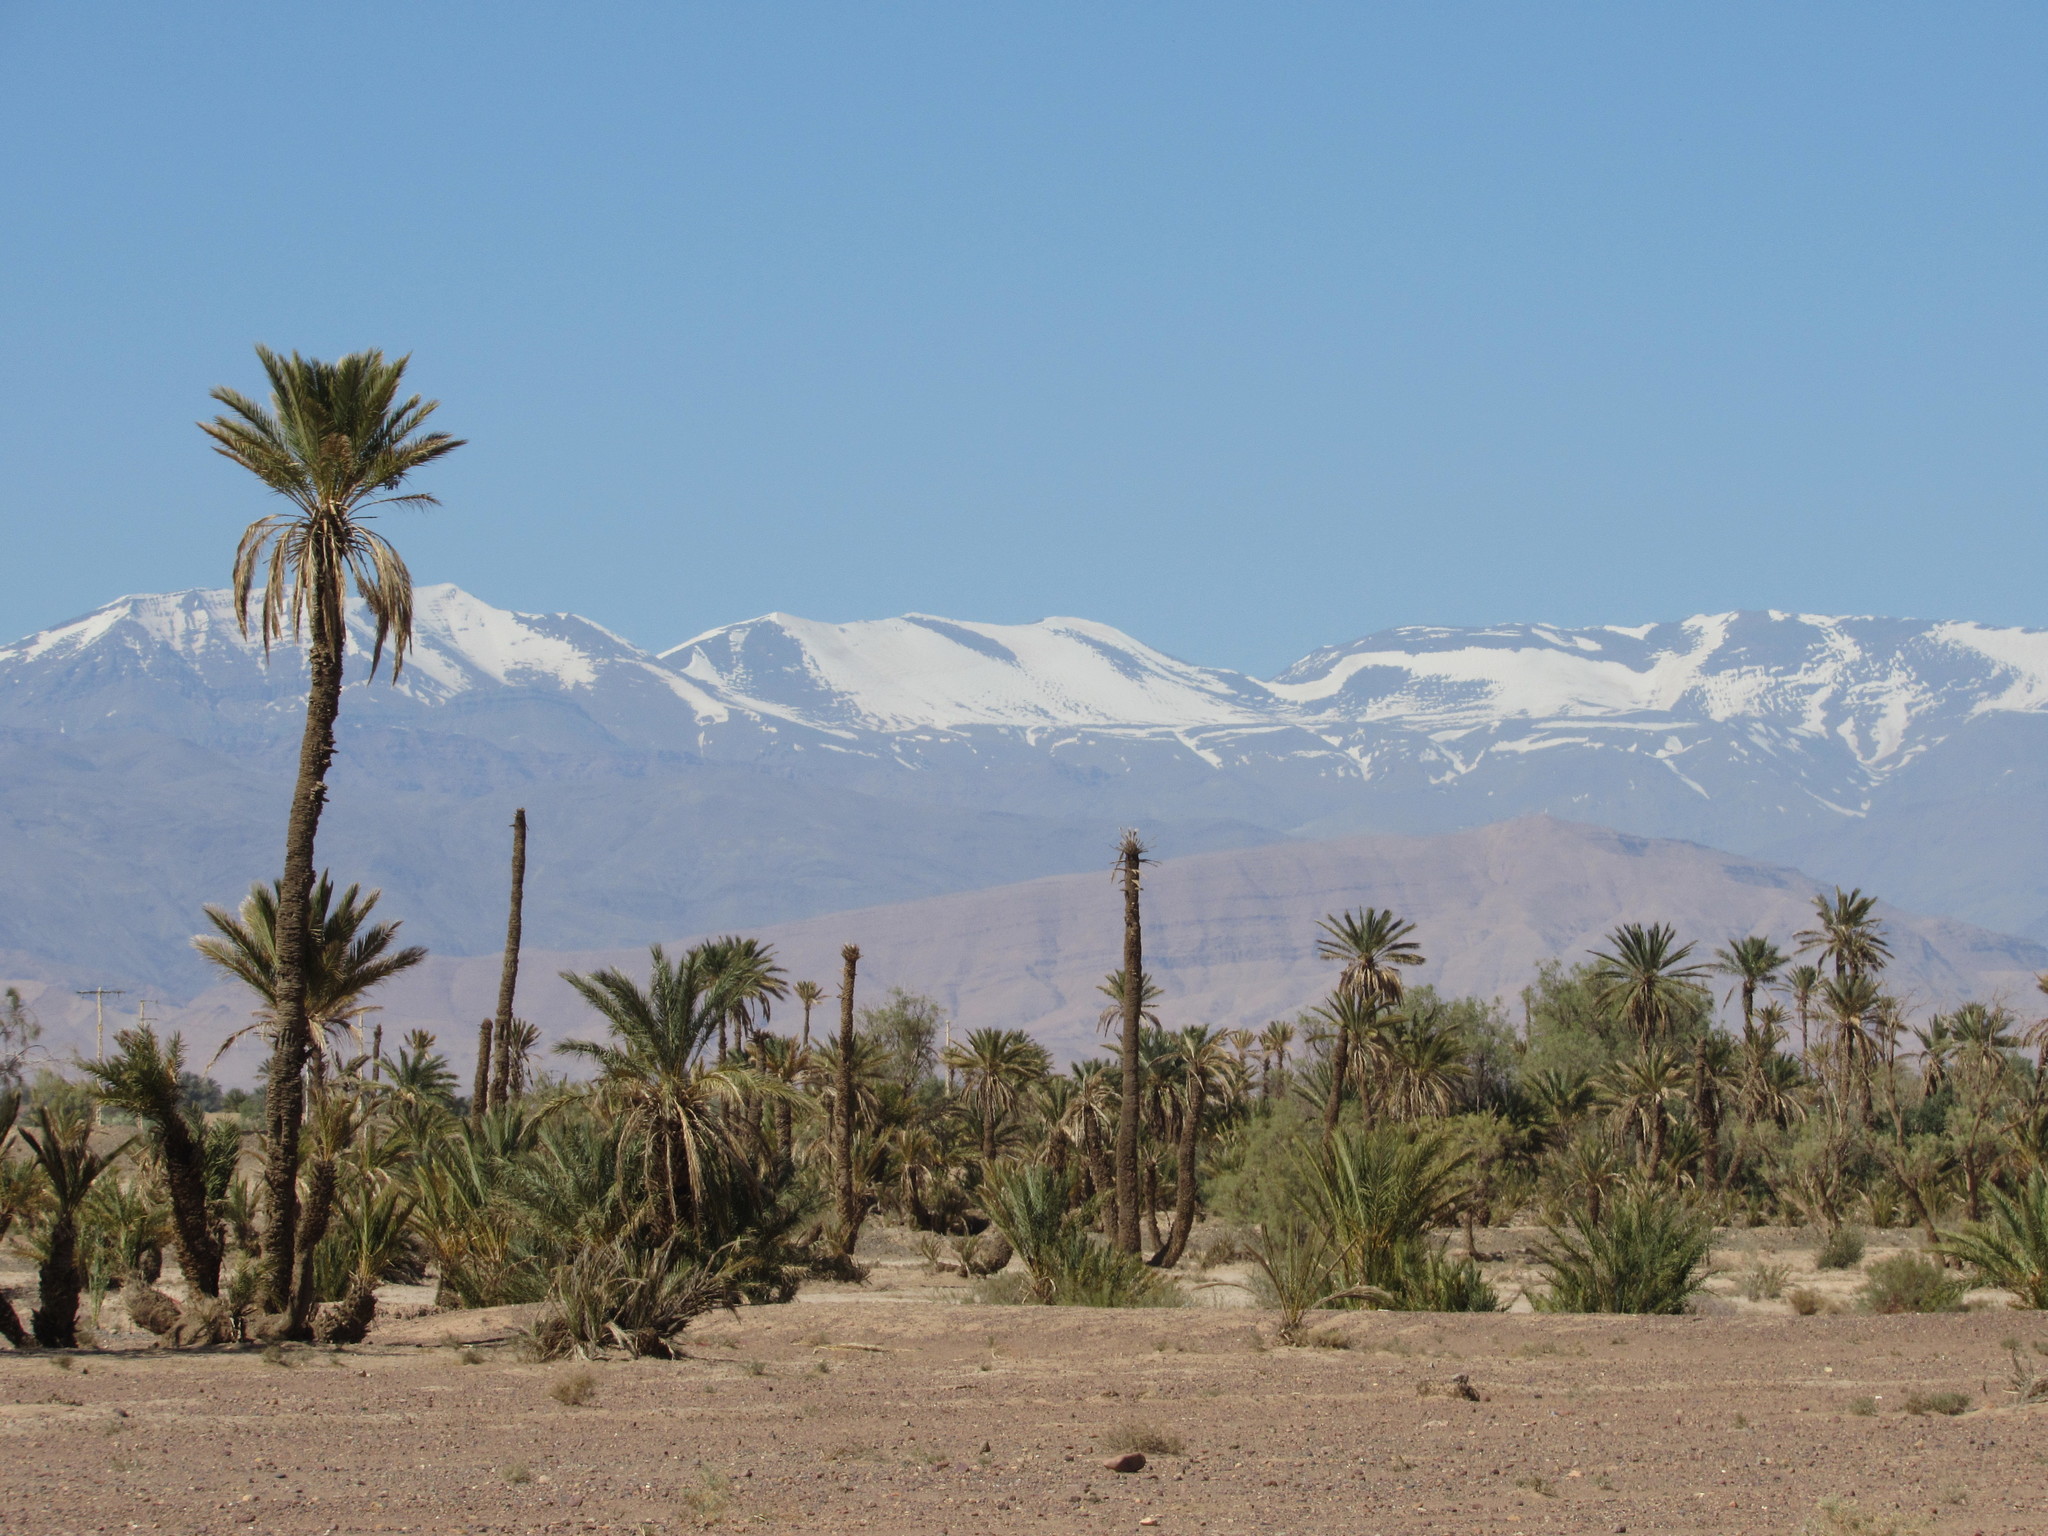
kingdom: Plantae
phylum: Tracheophyta
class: Liliopsida
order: Arecales
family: Arecaceae
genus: Phoenix
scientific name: Phoenix dactylifera
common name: Date palm
